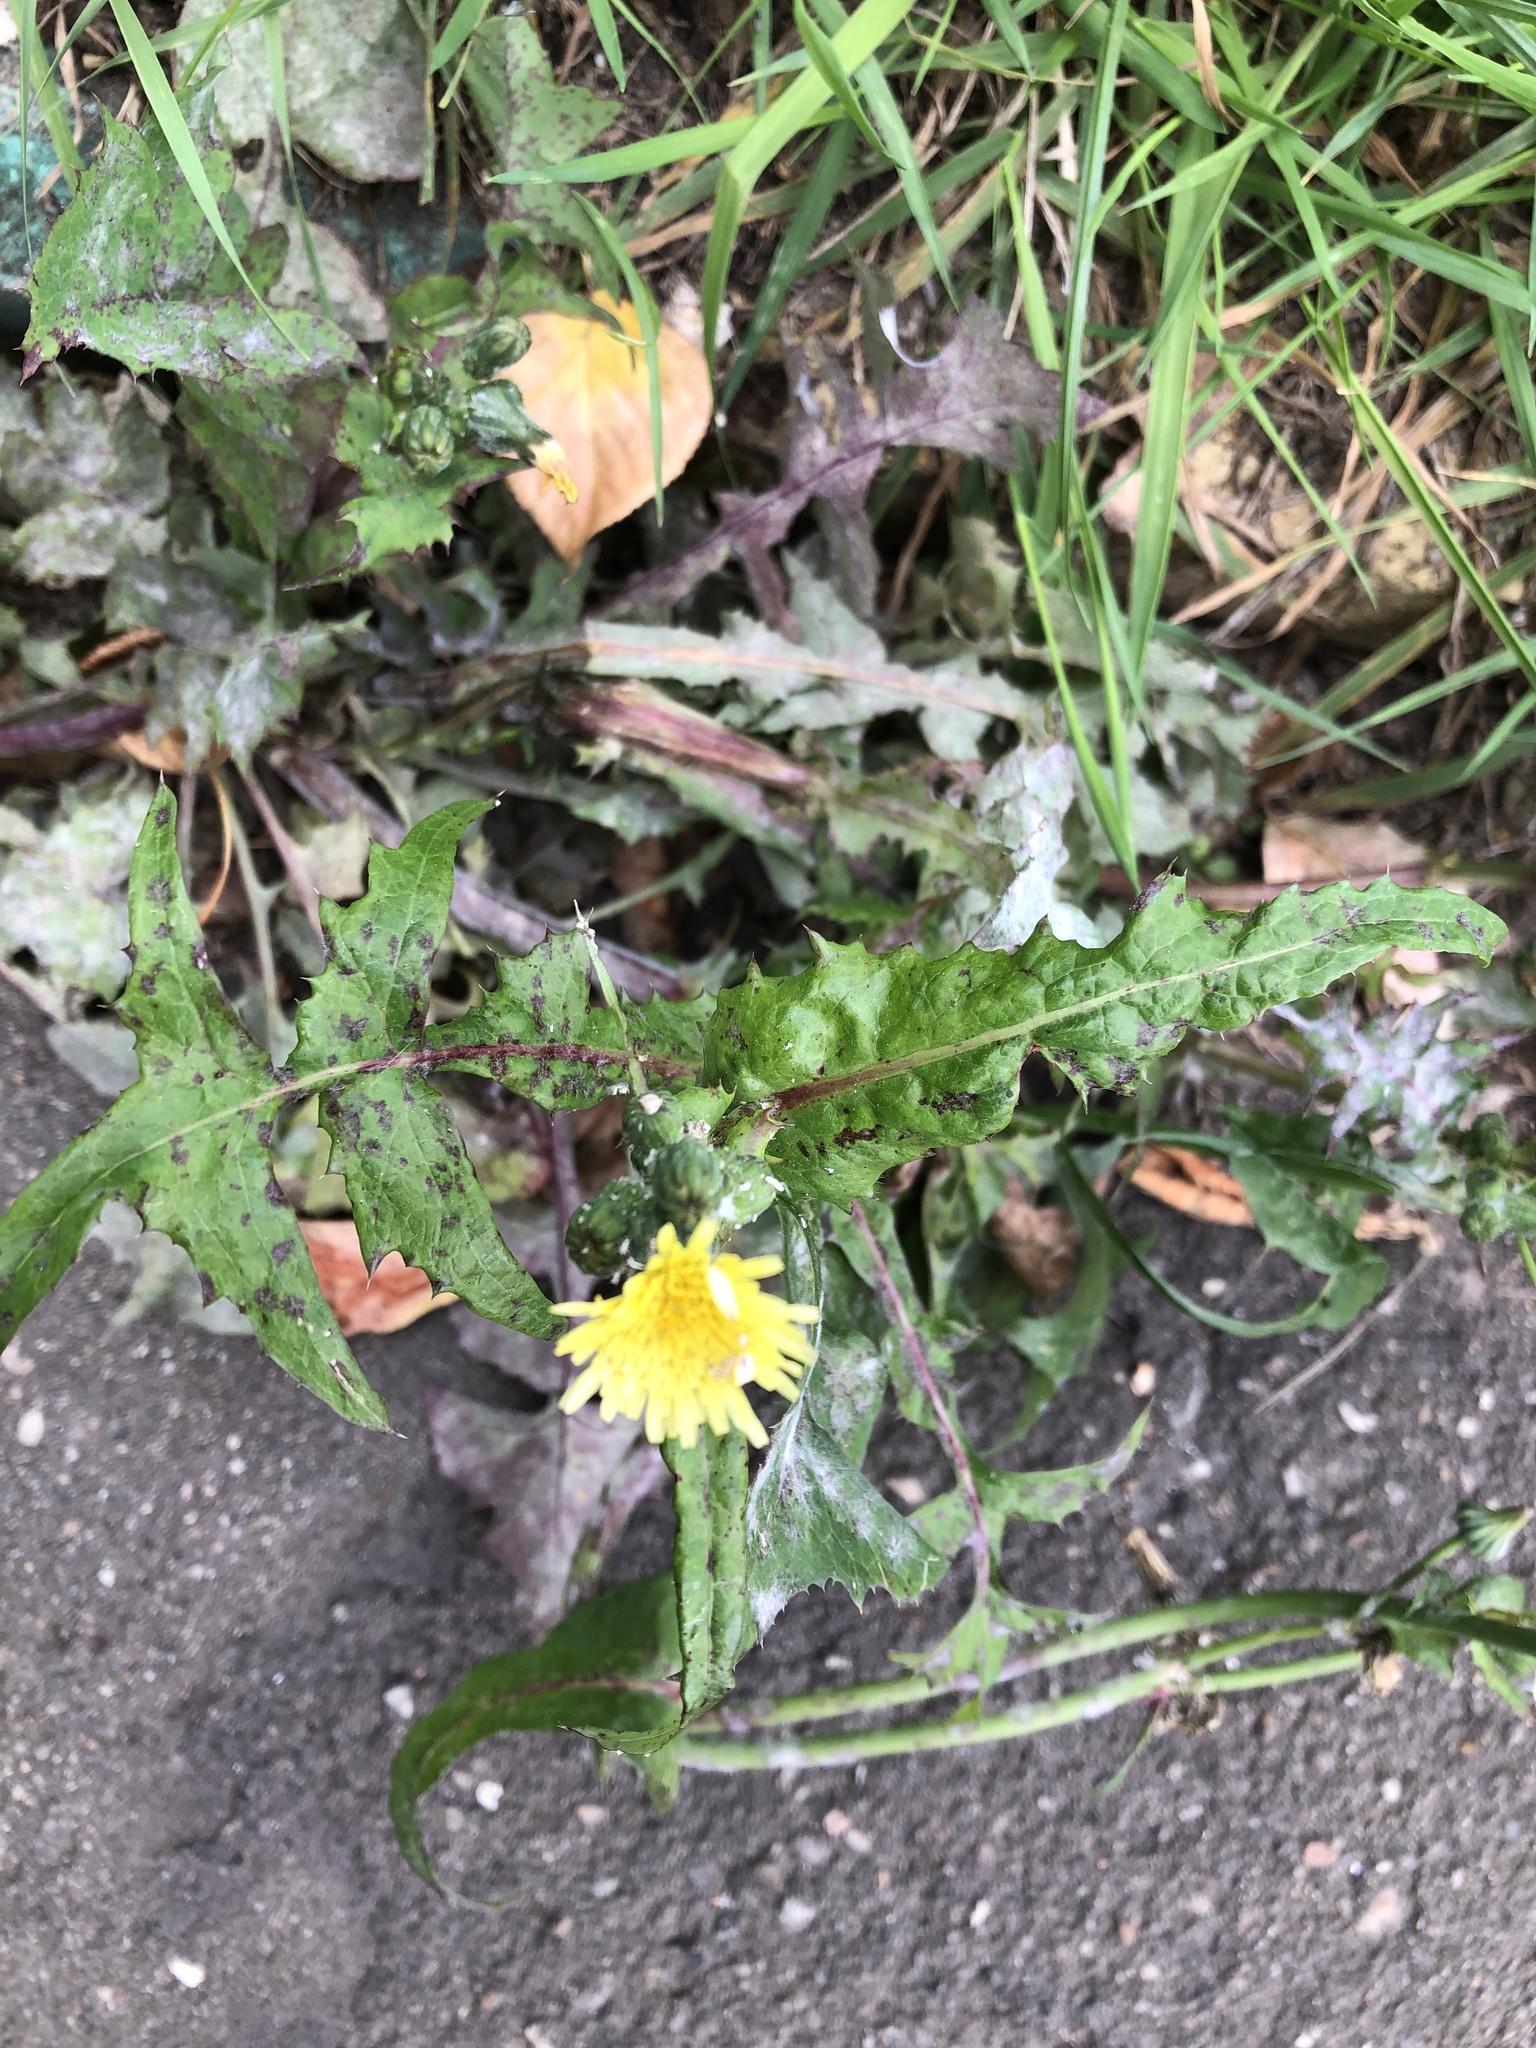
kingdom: Plantae
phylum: Tracheophyta
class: Magnoliopsida
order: Asterales
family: Asteraceae
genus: Sonchus
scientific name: Sonchus oleraceus
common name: Common sowthistle
